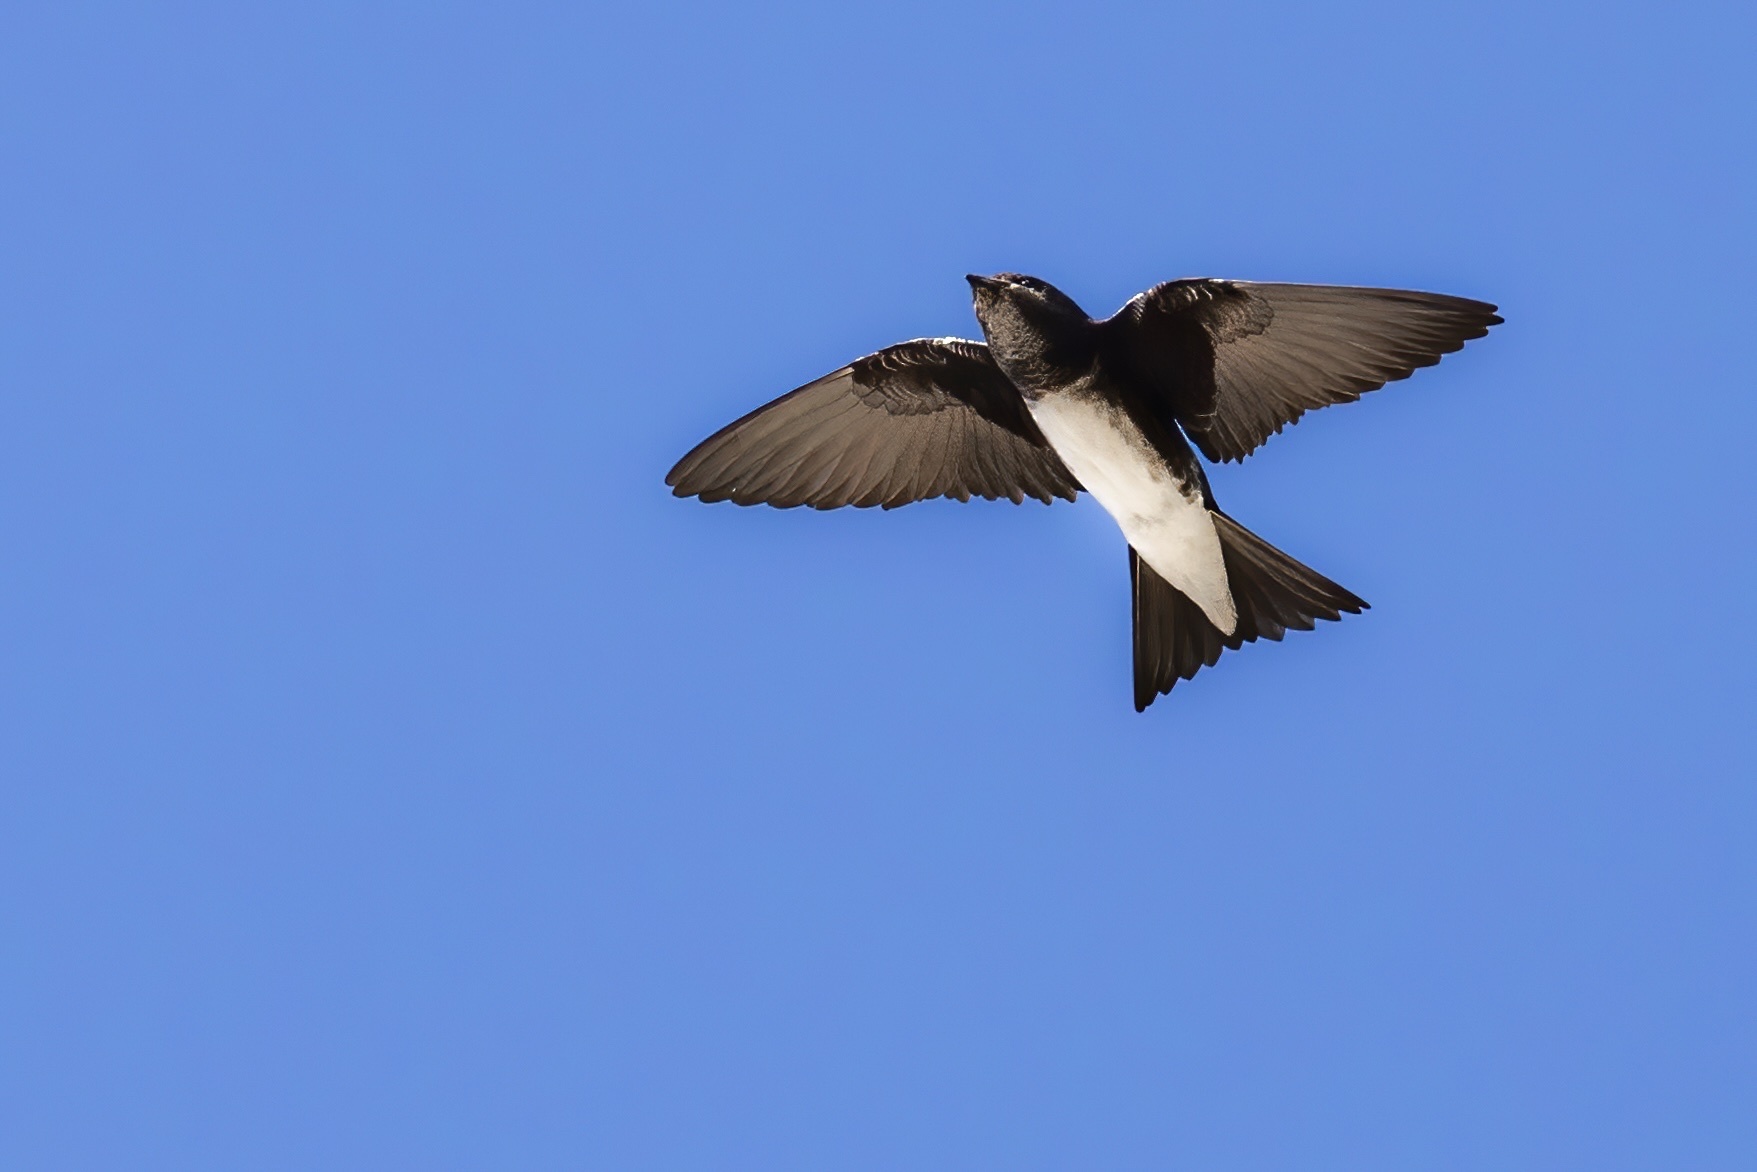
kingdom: Animalia
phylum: Chordata
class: Aves
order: Passeriformes
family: Hirundinidae
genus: Progne
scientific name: Progne dominicensis
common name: Caribbean martin
